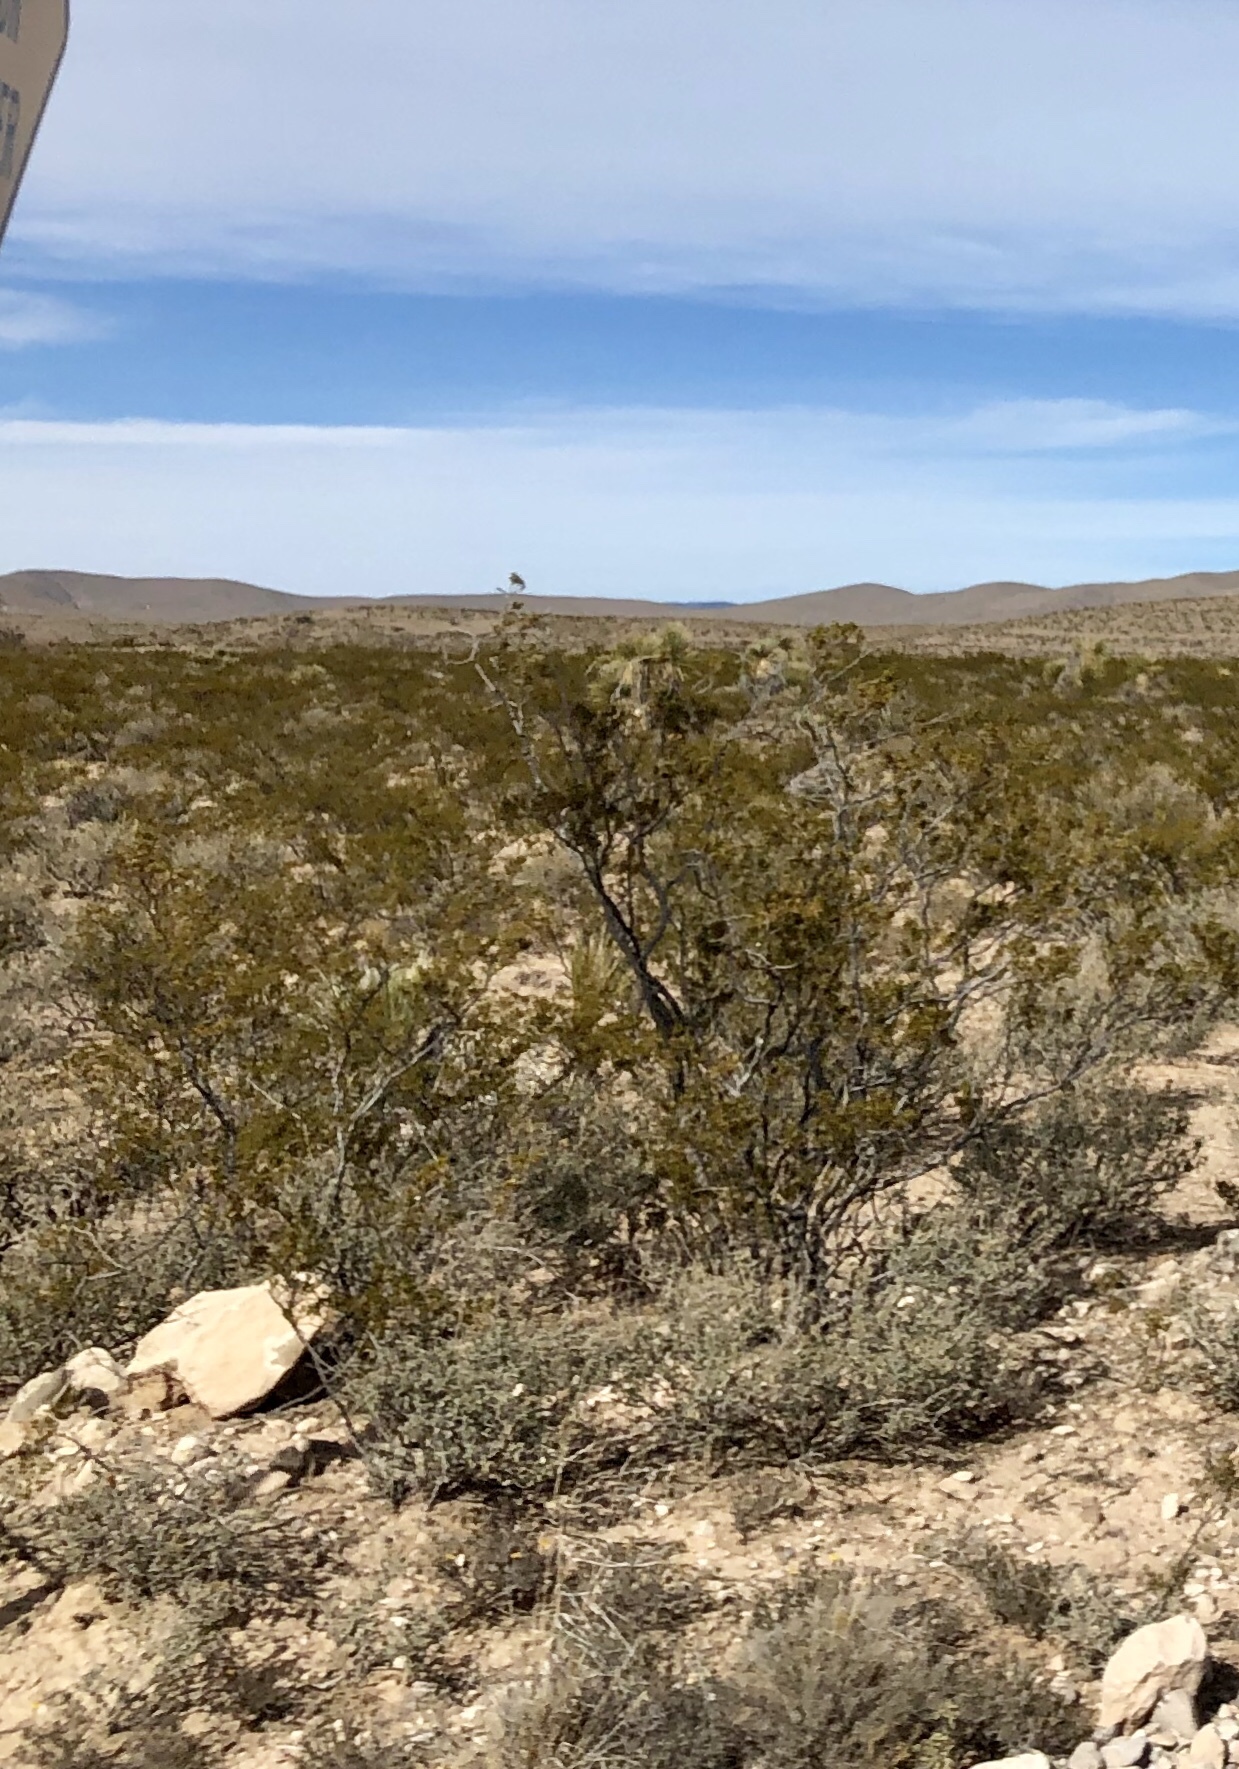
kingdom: Plantae
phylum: Tracheophyta
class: Magnoliopsida
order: Zygophyllales
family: Zygophyllaceae
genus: Larrea
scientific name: Larrea tridentata
